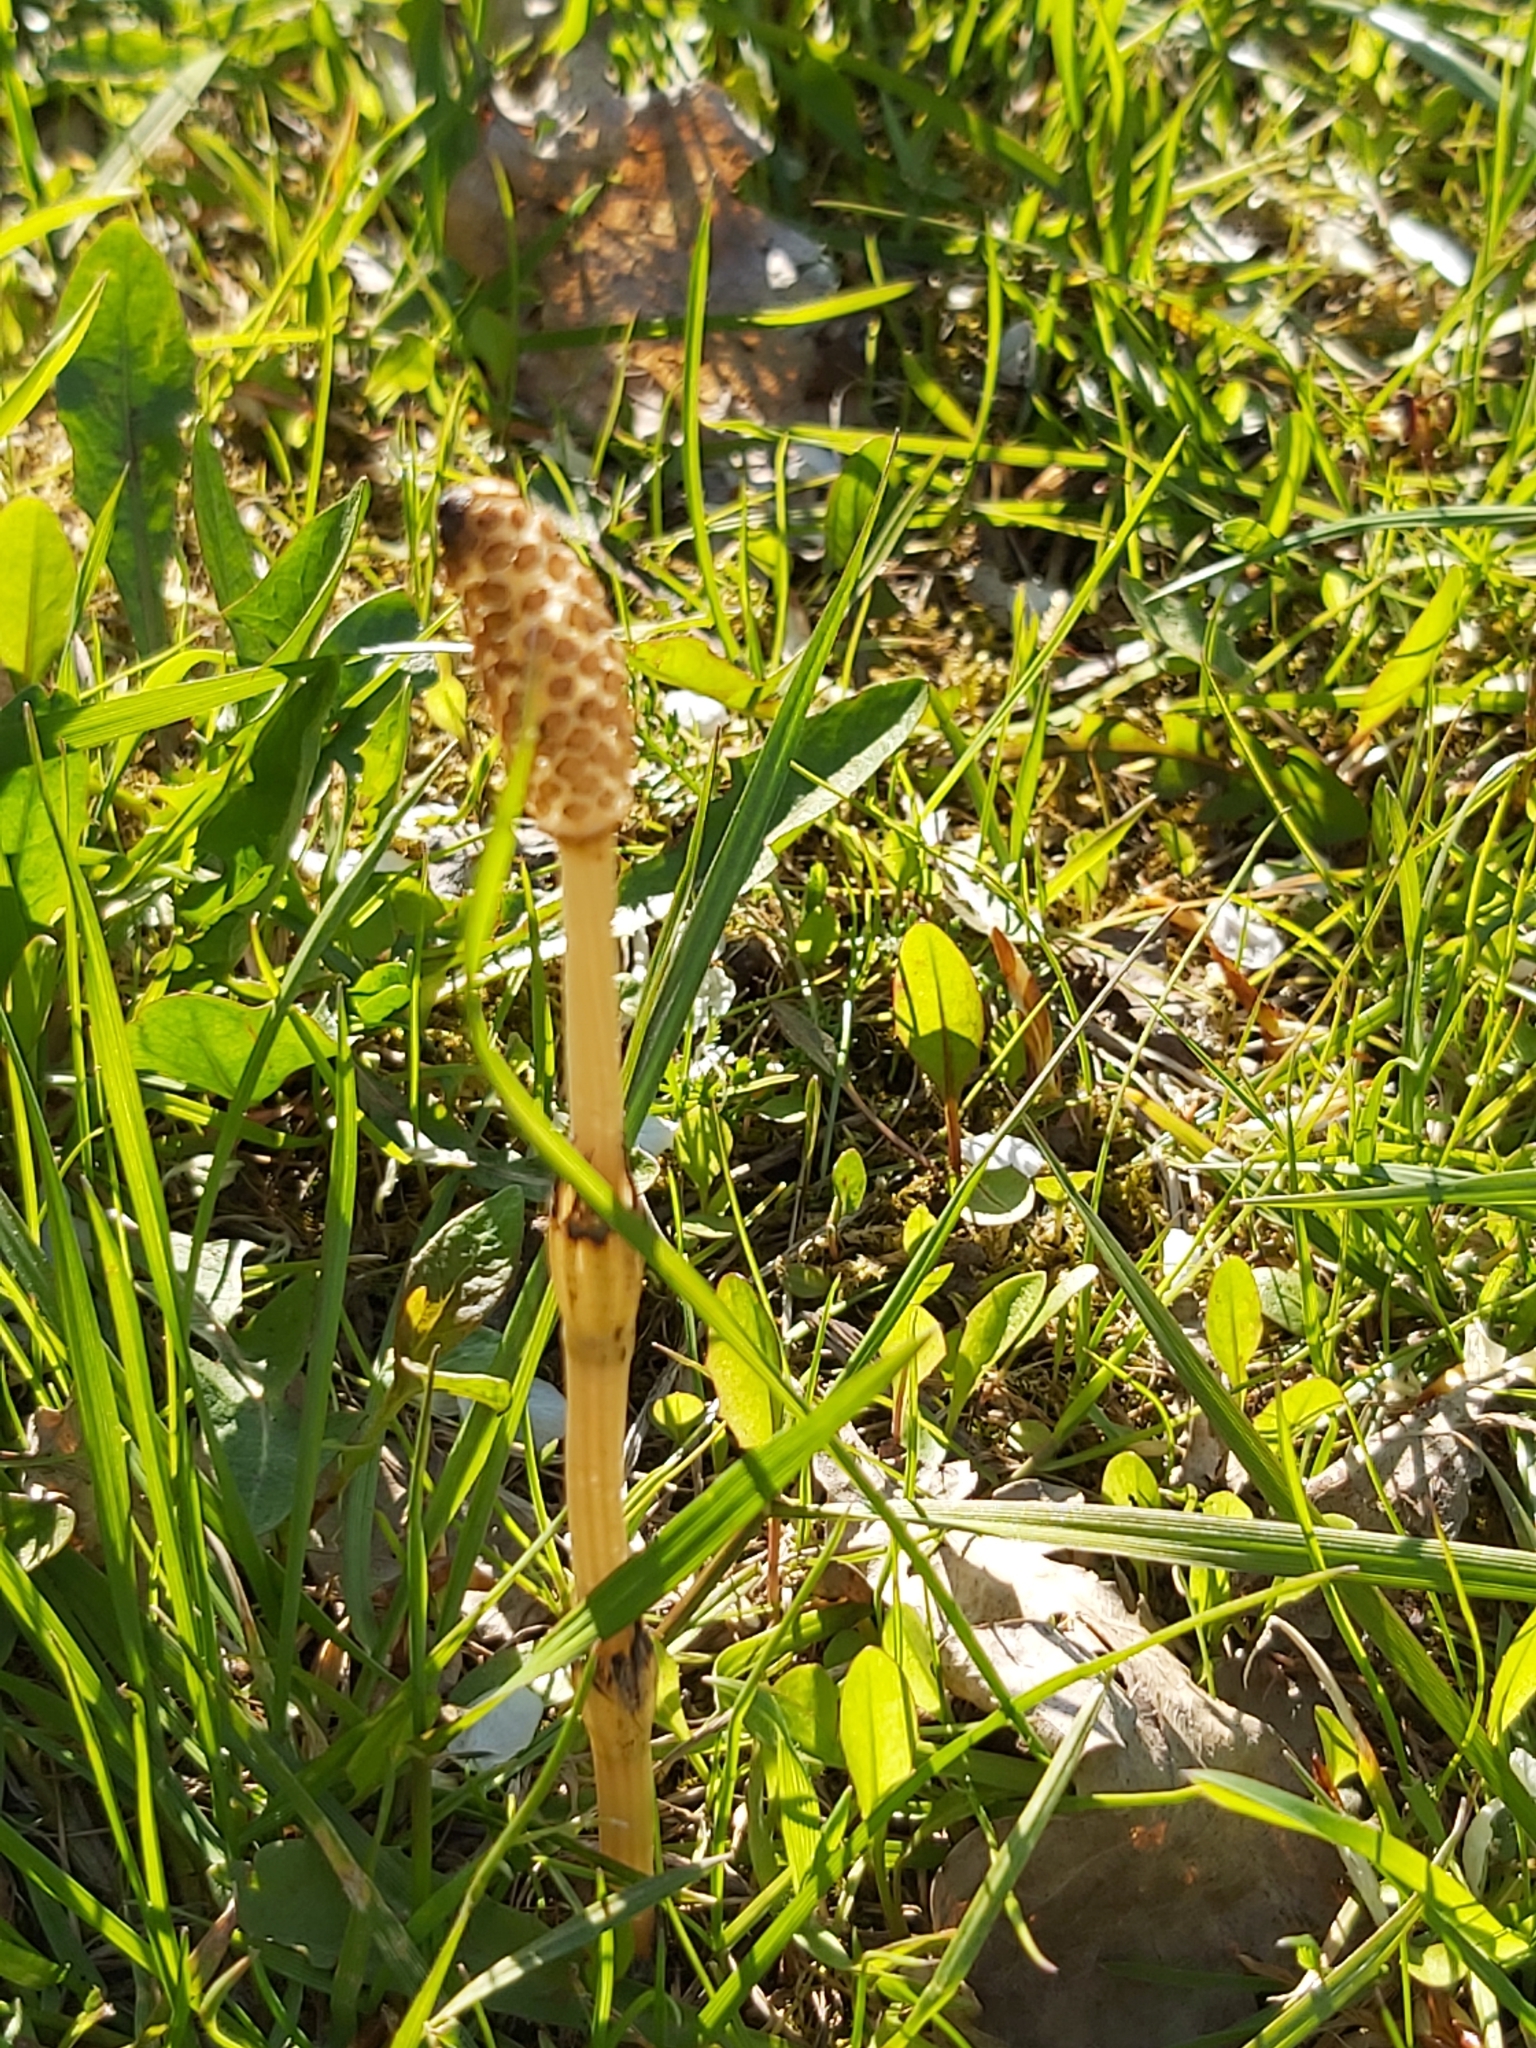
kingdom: Plantae
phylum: Tracheophyta
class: Polypodiopsida
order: Equisetales
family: Equisetaceae
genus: Equisetum
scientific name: Equisetum arvense
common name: Field horsetail
